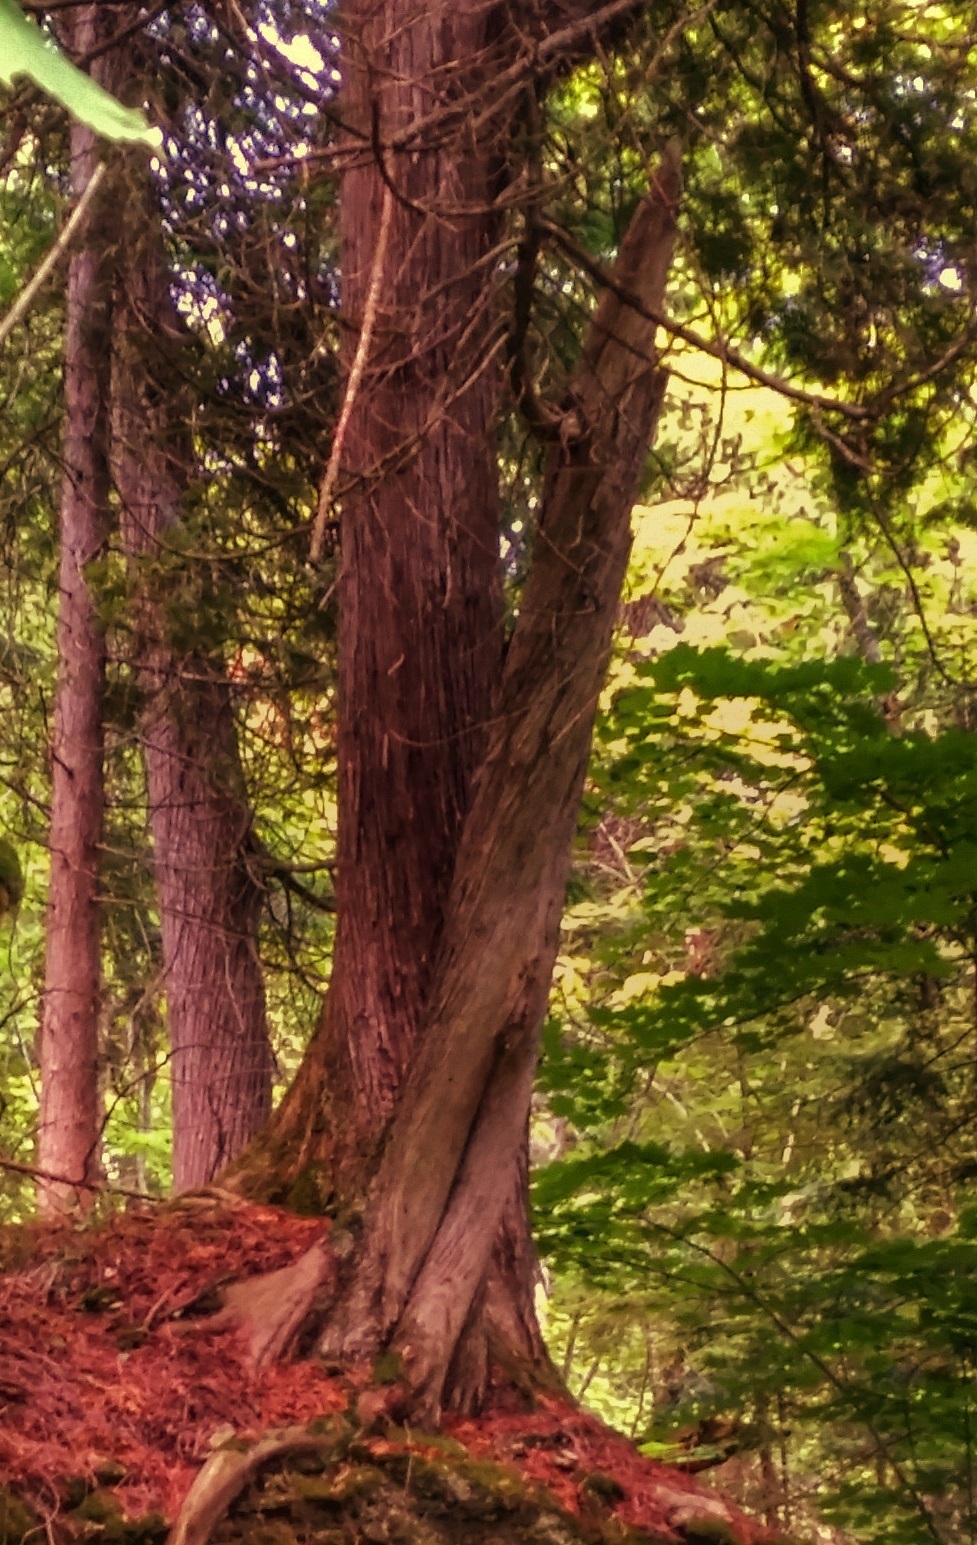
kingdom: Plantae
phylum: Tracheophyta
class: Pinopsida
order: Pinales
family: Cupressaceae
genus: Thuja
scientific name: Thuja occidentalis
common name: Northern white-cedar
